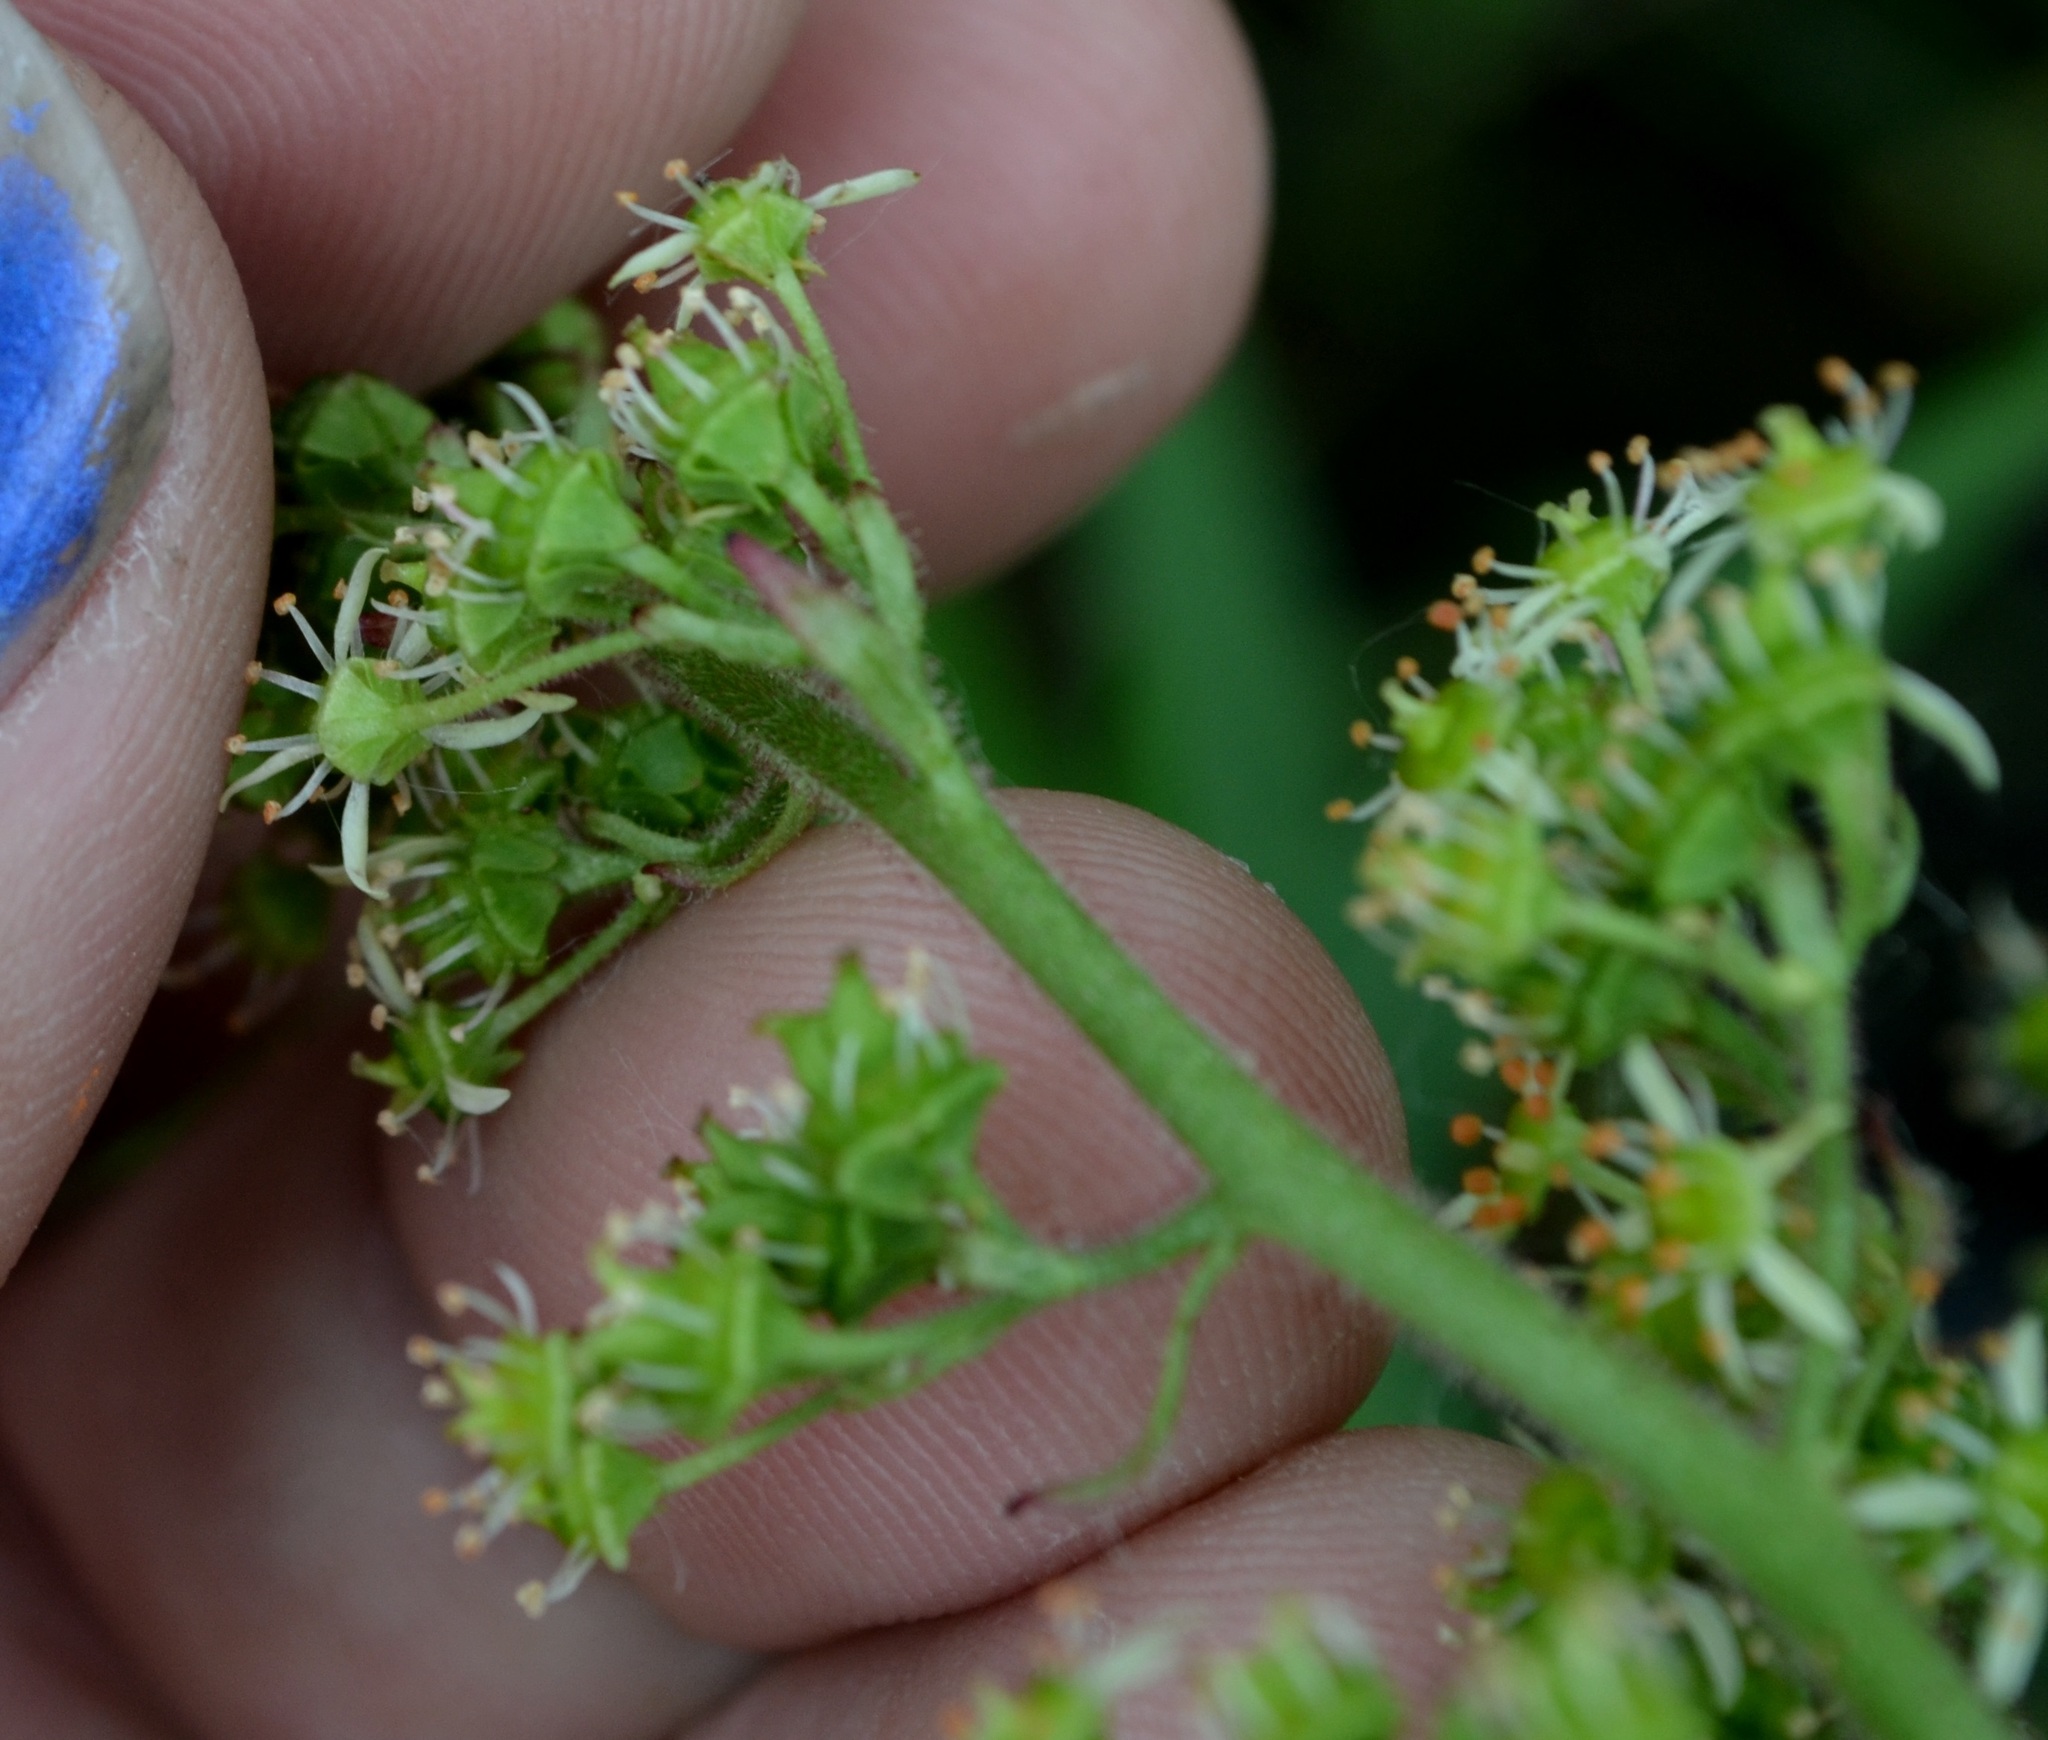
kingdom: Plantae
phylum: Tracheophyta
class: Magnoliopsida
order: Saxifragales
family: Saxifragaceae
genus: Micranthes
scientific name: Micranthes pensylvanica
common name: Marsh saxifrage
